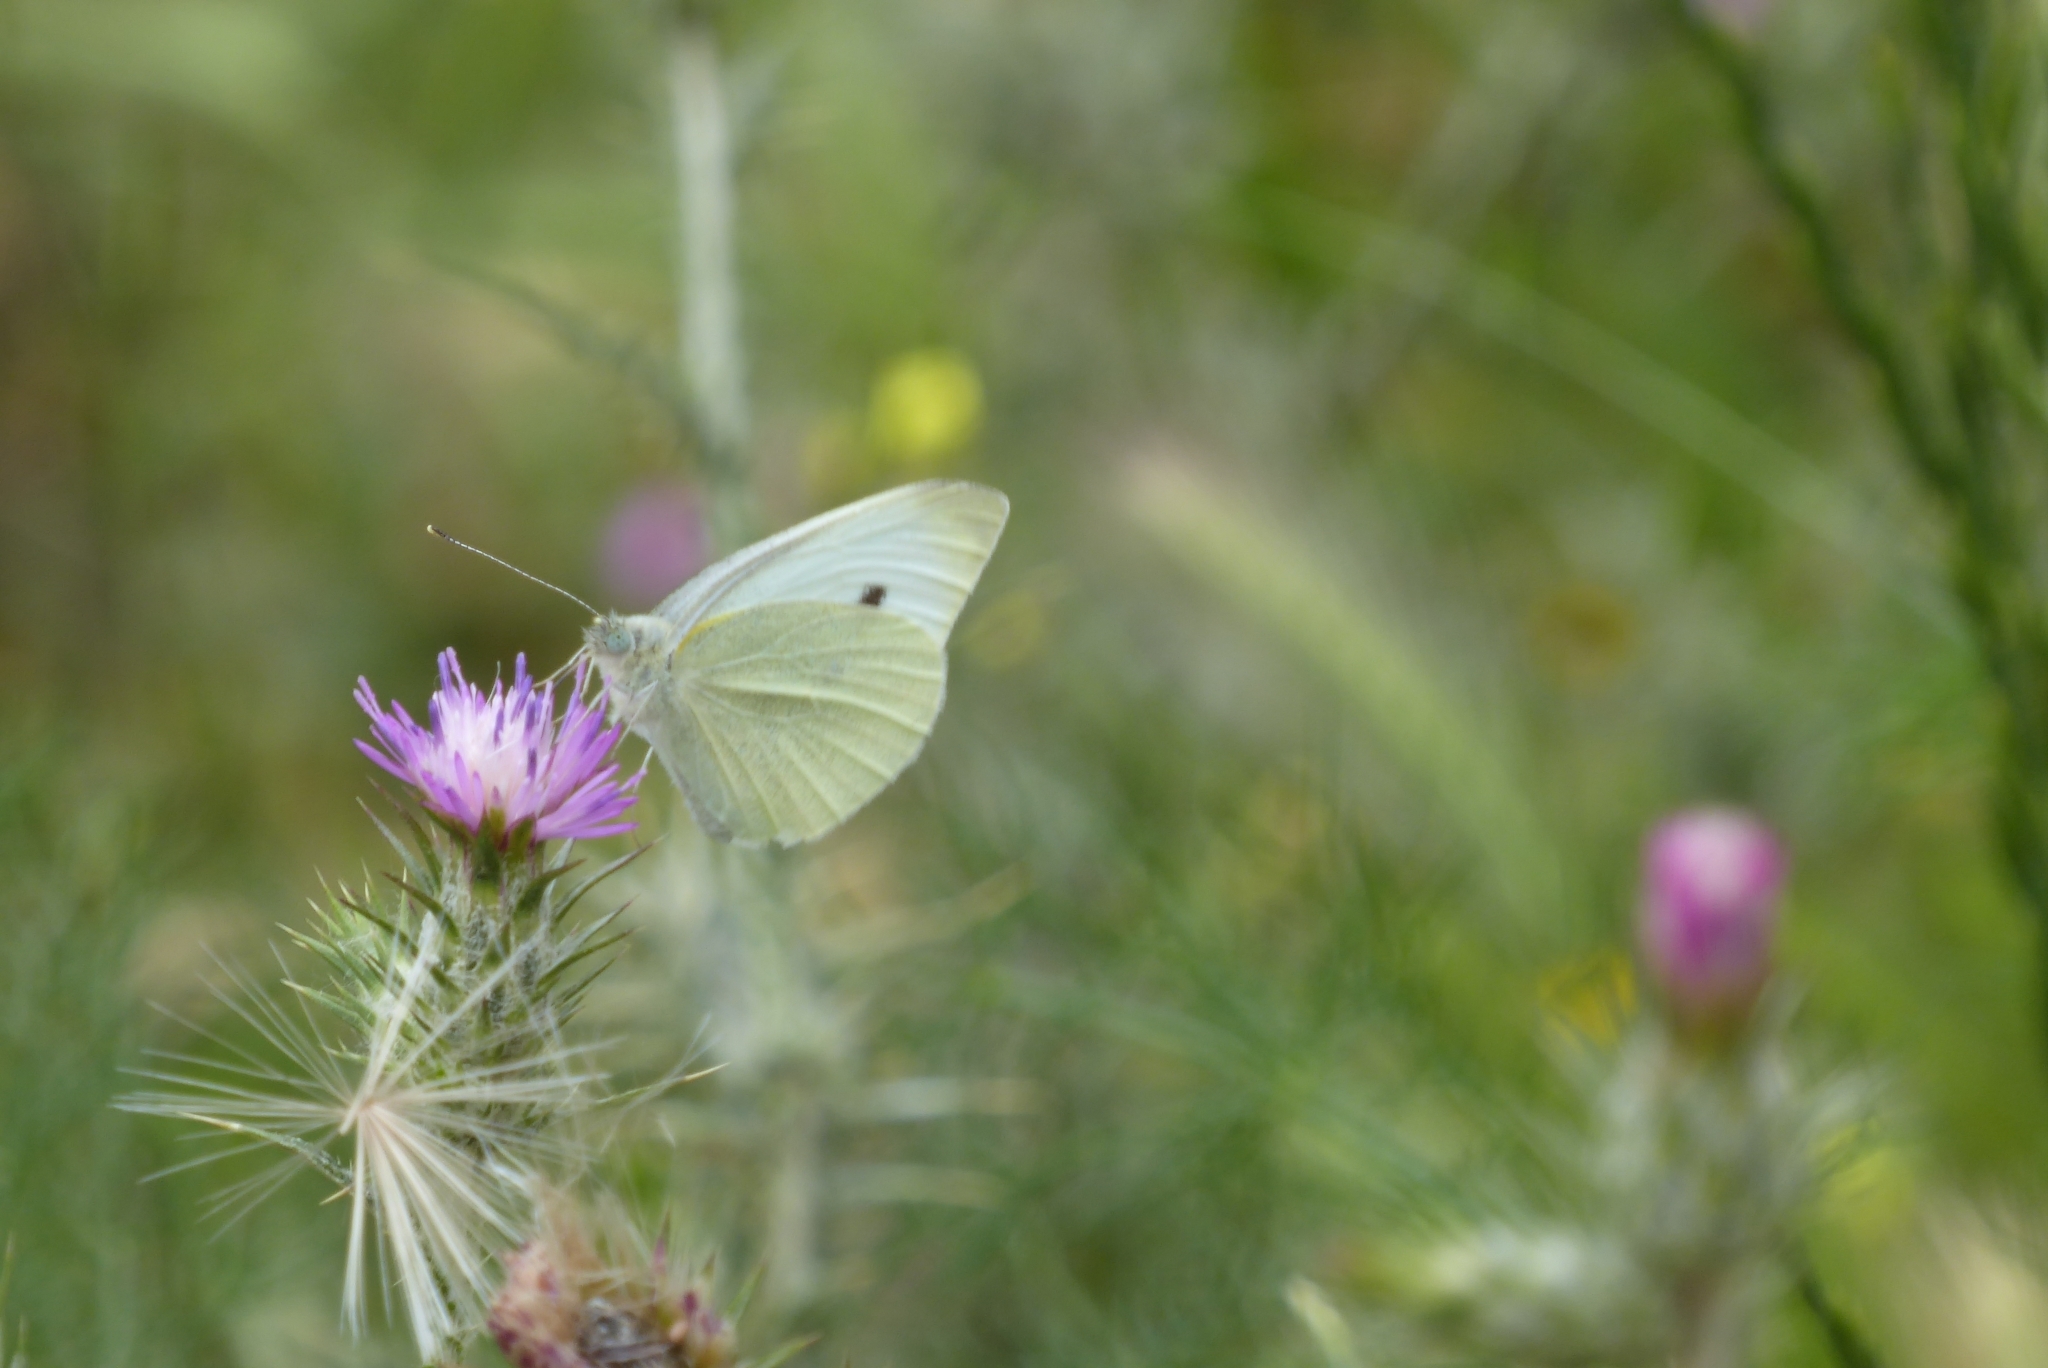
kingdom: Animalia
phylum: Arthropoda
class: Insecta
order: Lepidoptera
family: Pieridae
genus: Pieris
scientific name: Pieris rapae
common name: Small white
